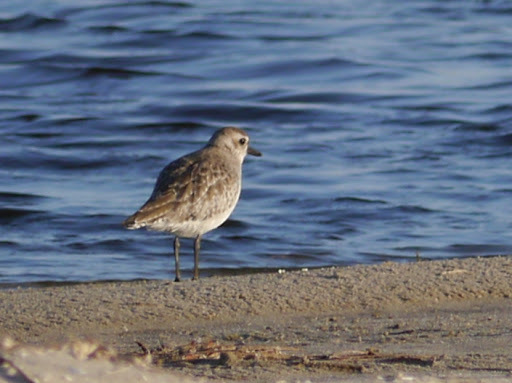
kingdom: Animalia
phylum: Chordata
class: Aves
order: Charadriiformes
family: Charadriidae
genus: Pluvialis
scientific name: Pluvialis squatarola
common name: Grey plover
